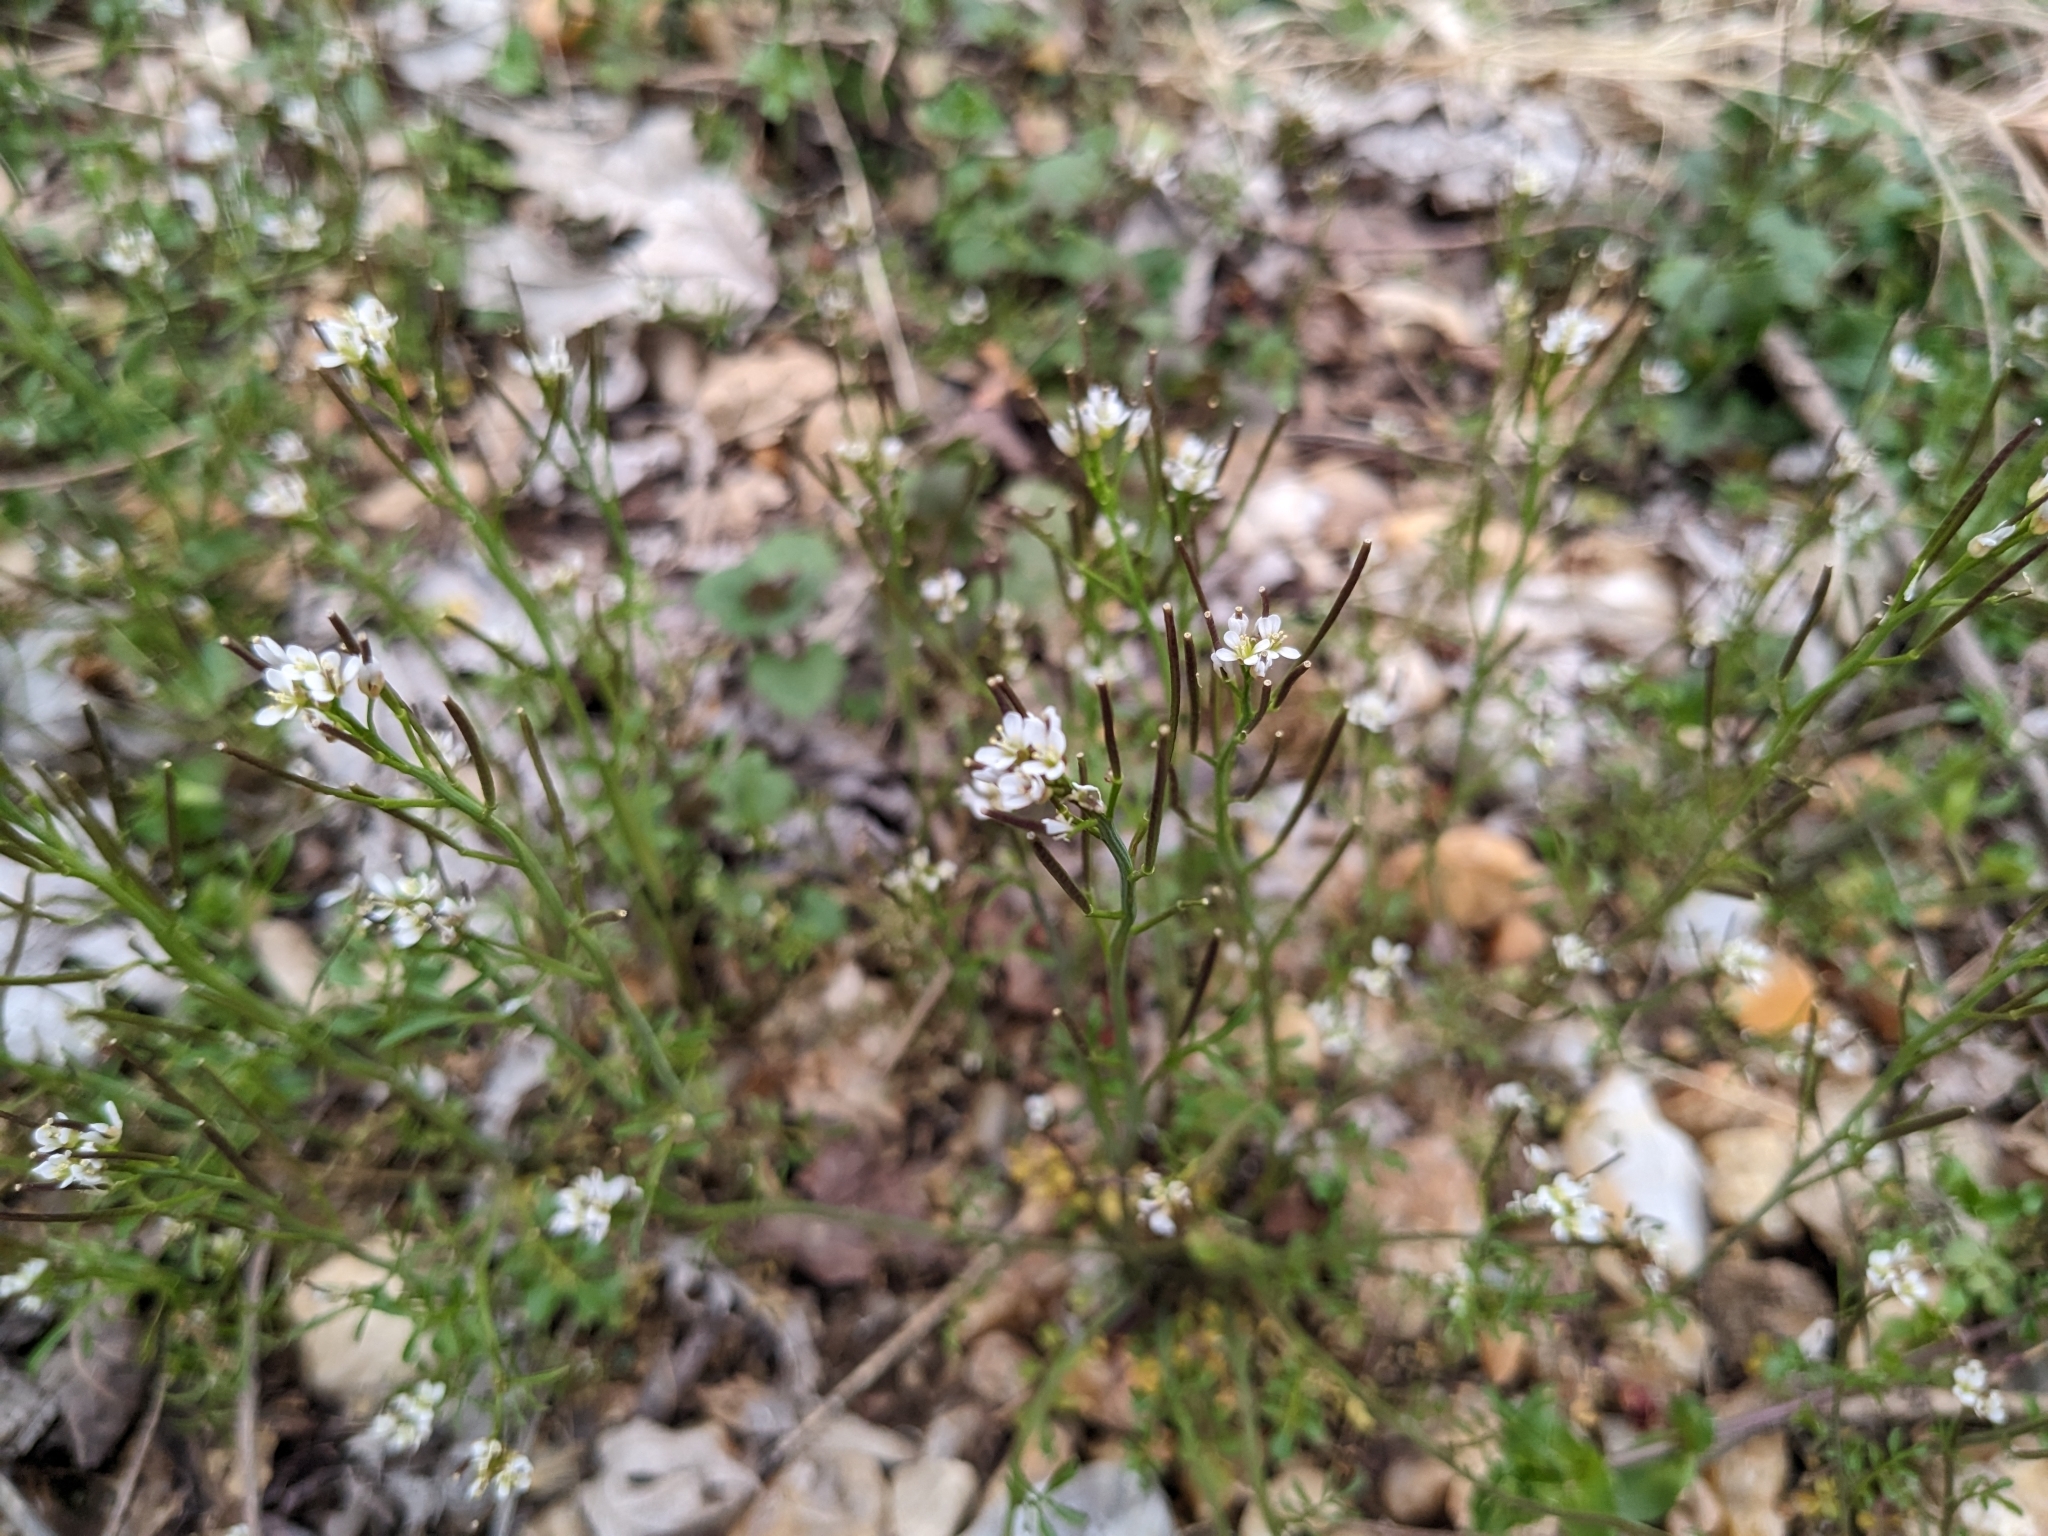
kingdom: Plantae
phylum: Tracheophyta
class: Magnoliopsida
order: Brassicales
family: Brassicaceae
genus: Cardamine
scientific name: Cardamine hirsuta
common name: Hairy bittercress
